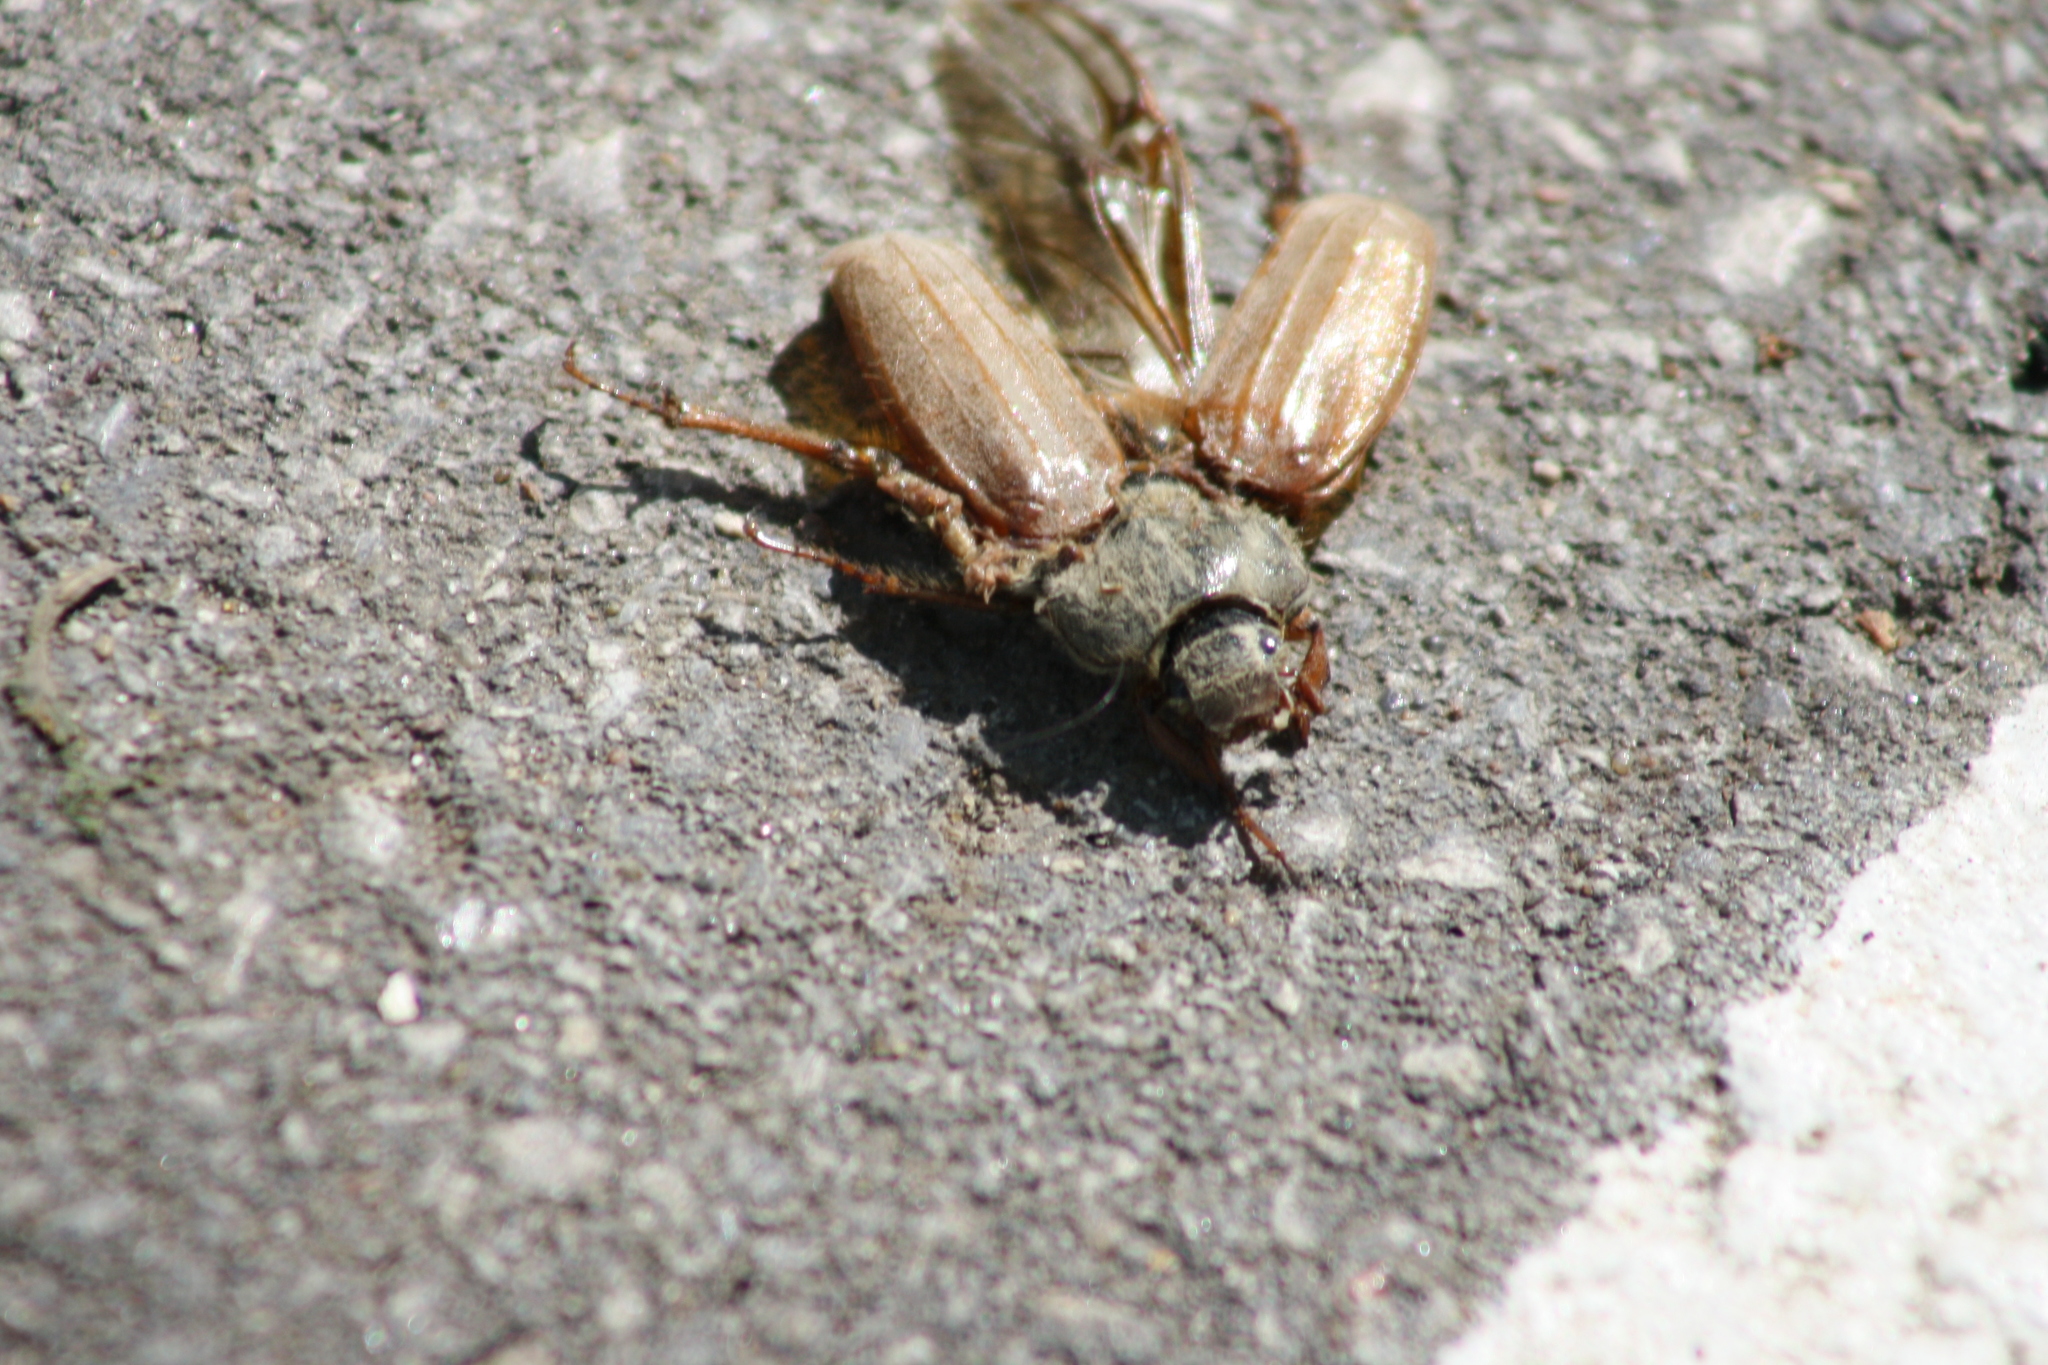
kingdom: Animalia
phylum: Arthropoda
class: Insecta
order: Coleoptera
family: Scarabaeidae
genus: Melolontha
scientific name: Melolontha melolontha
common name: Cockchafer maybeetle
